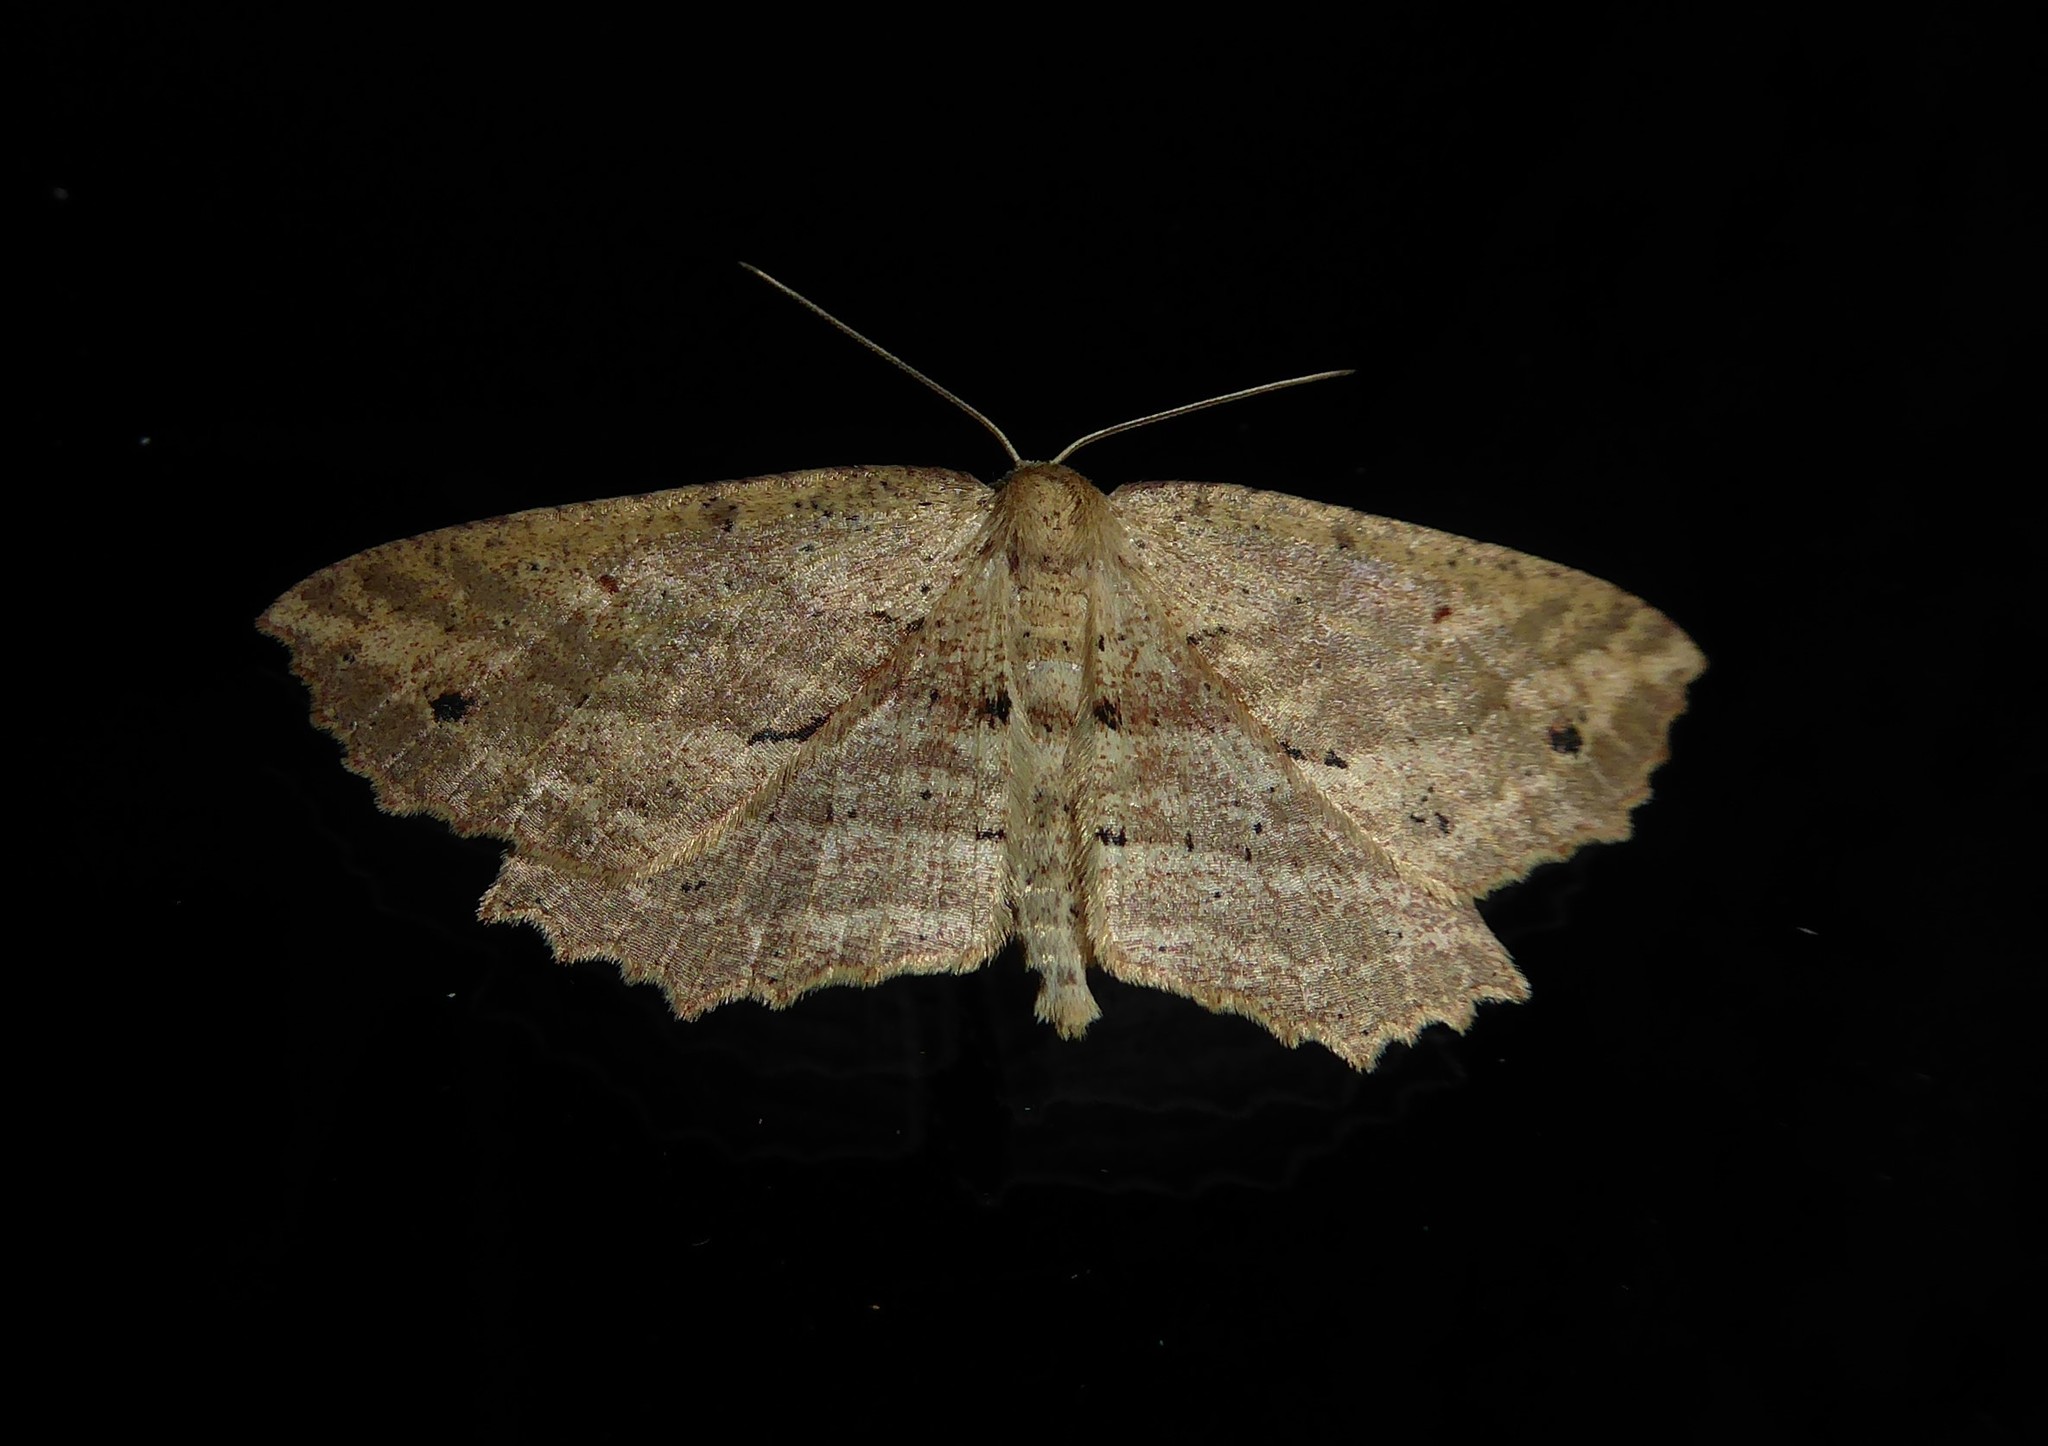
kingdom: Animalia
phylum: Arthropoda
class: Insecta
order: Lepidoptera
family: Geometridae
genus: Xyridacma
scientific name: Xyridacma veronicae
